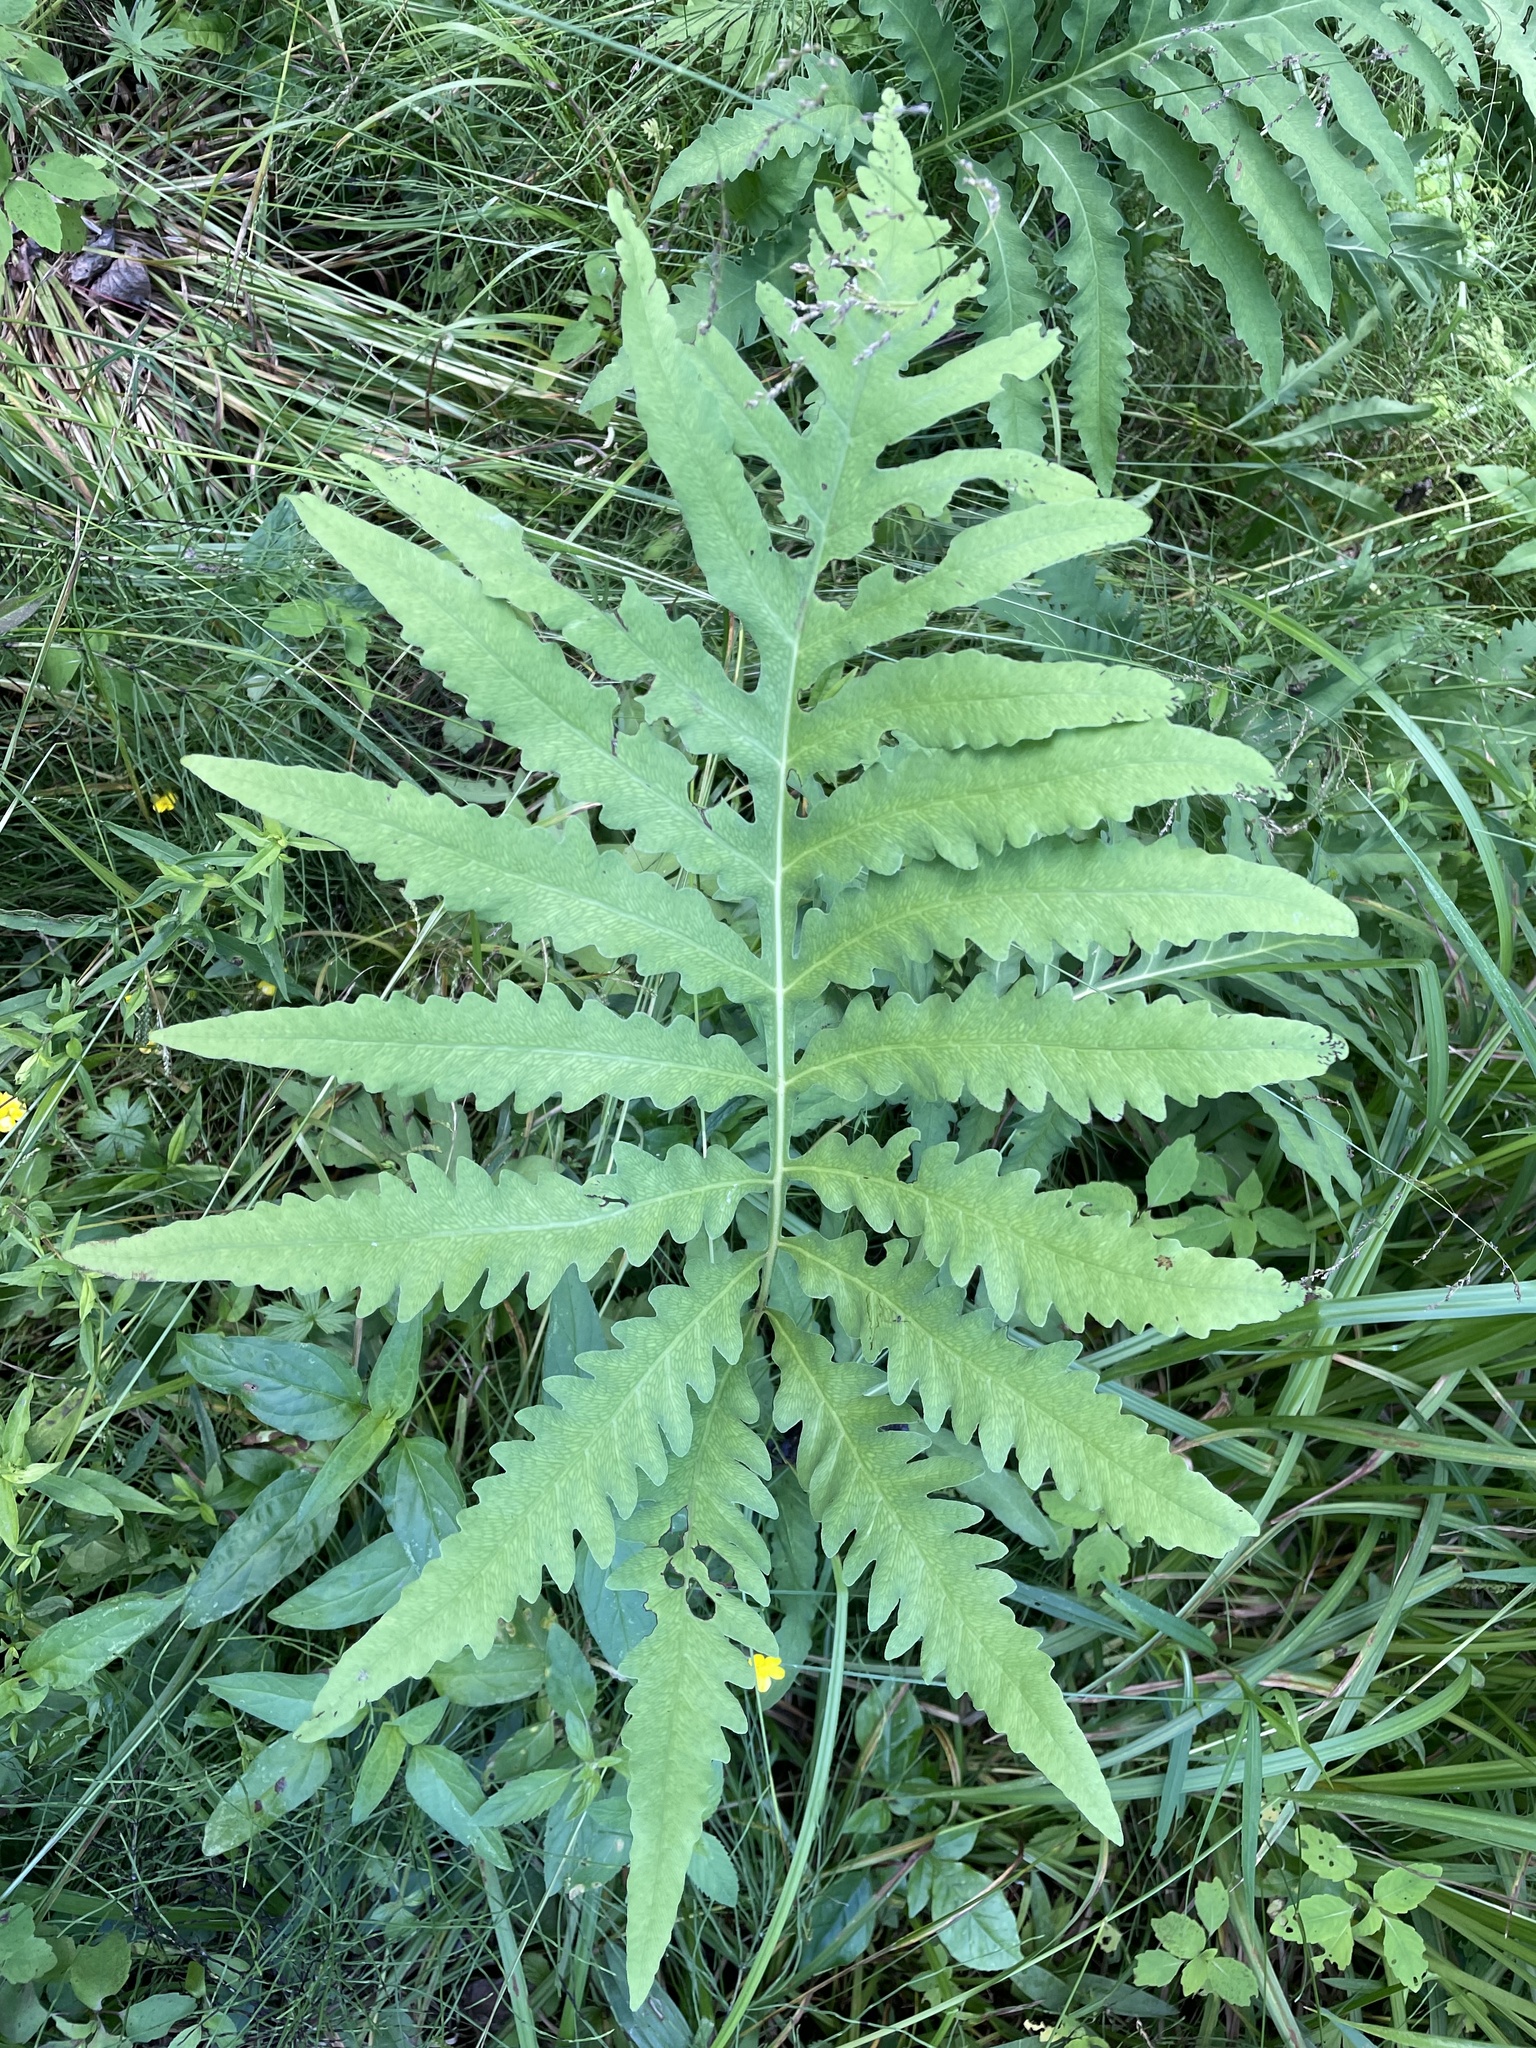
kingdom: Plantae
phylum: Tracheophyta
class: Polypodiopsida
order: Polypodiales
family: Onocleaceae
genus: Onoclea
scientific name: Onoclea sensibilis
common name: Sensitive fern
